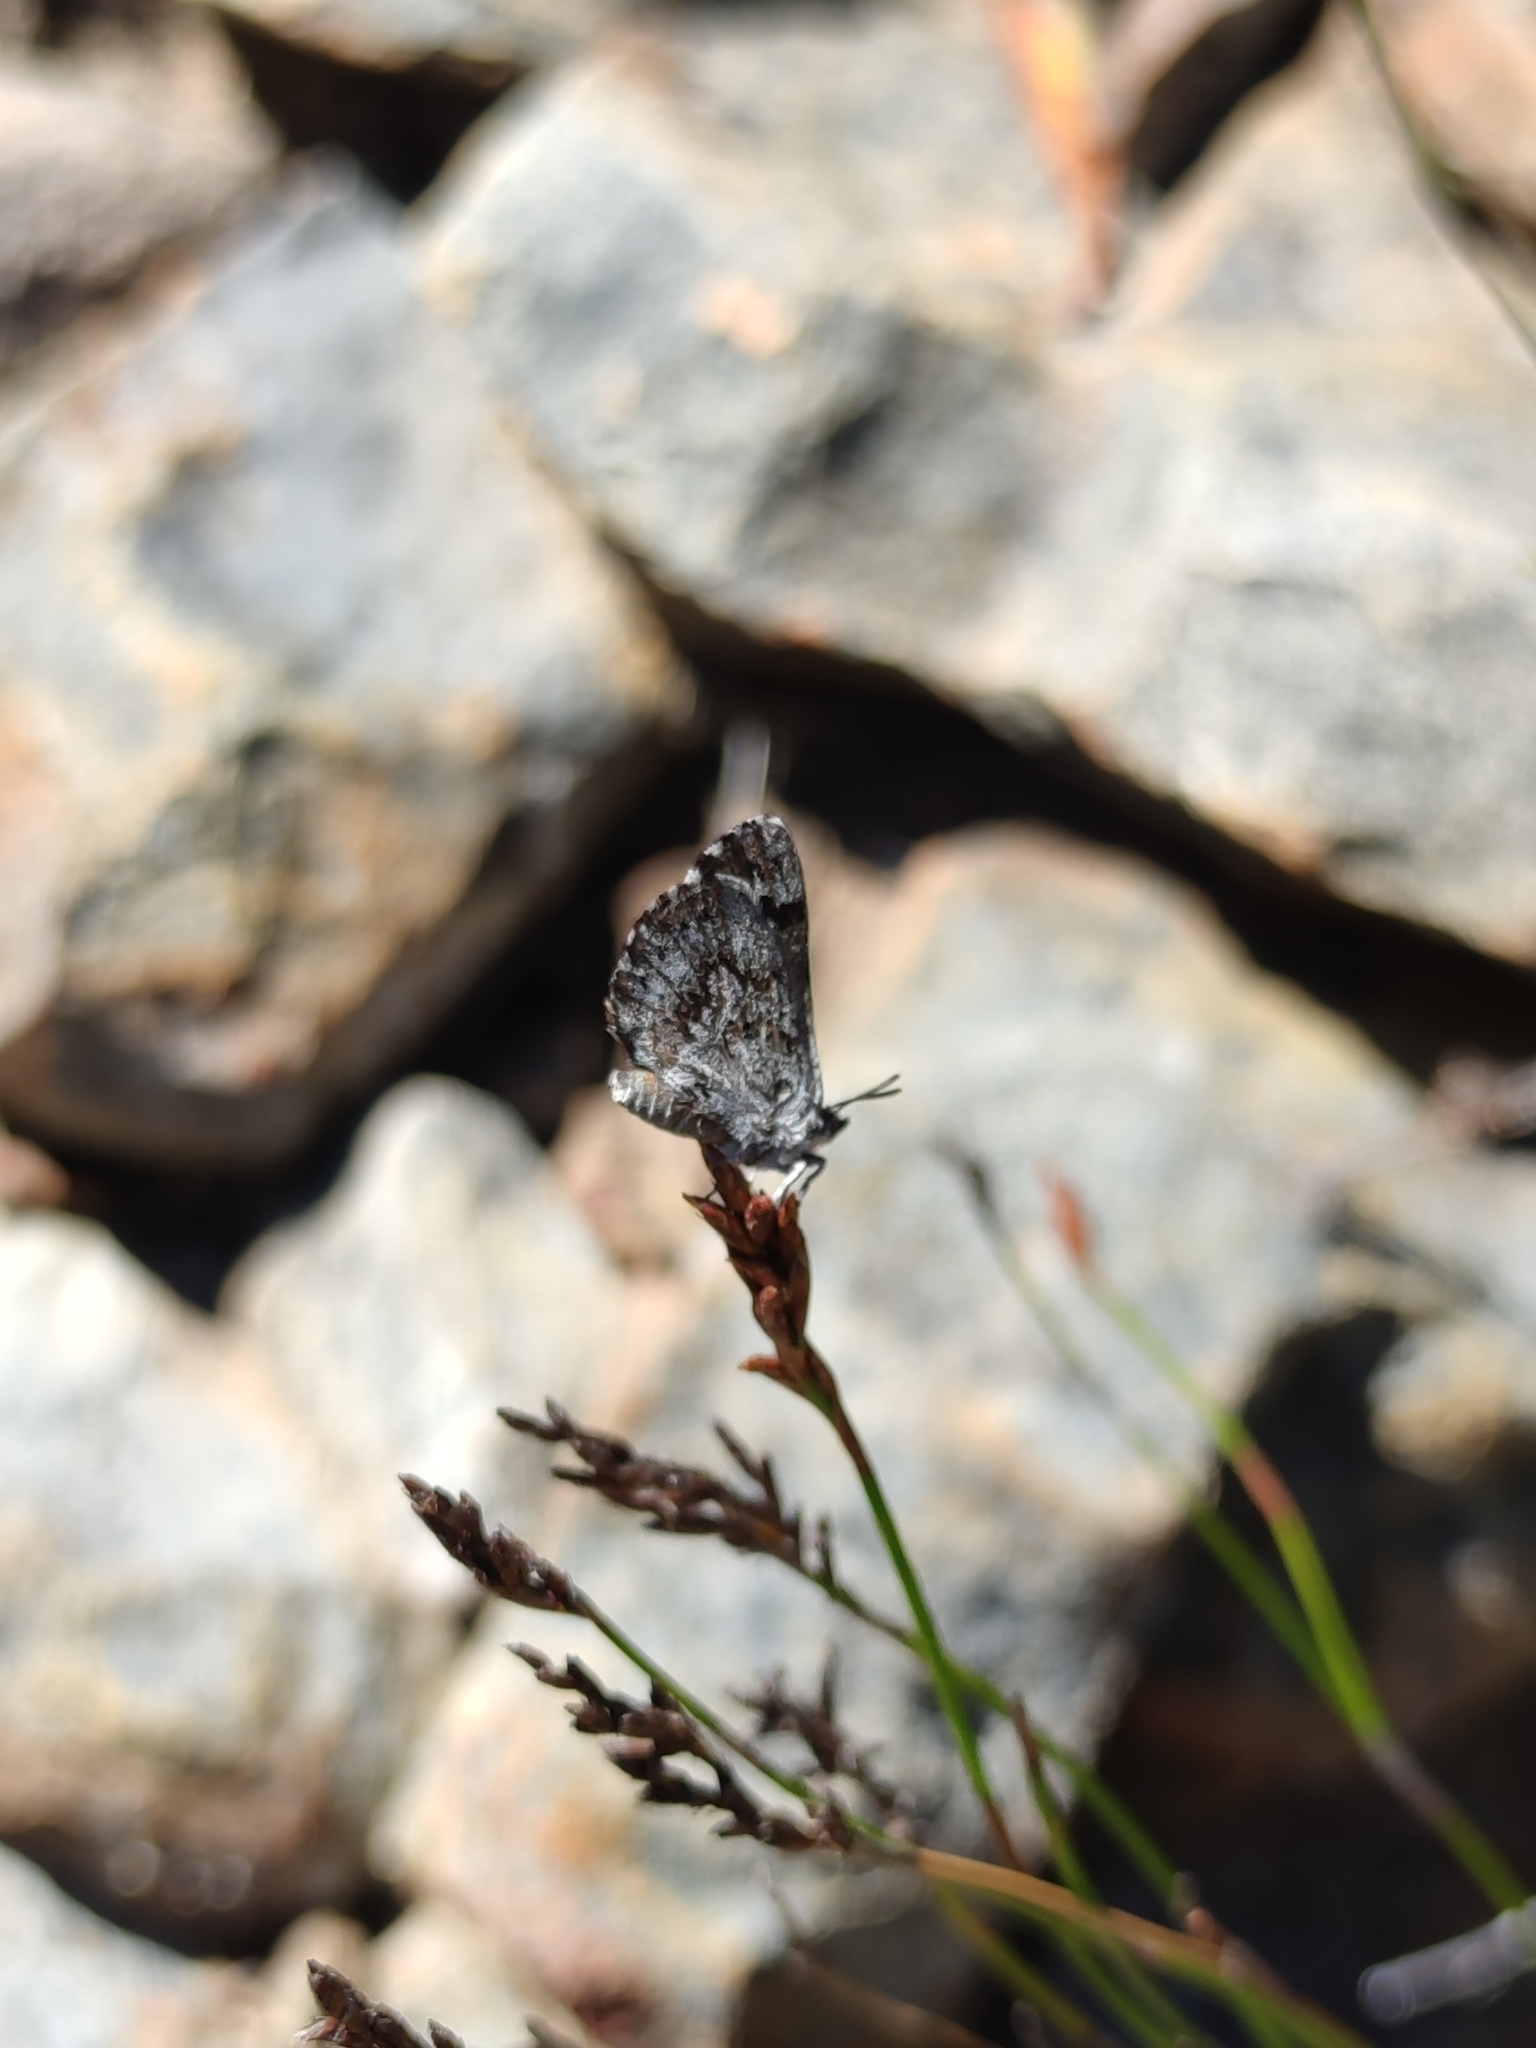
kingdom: Animalia
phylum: Arthropoda
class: Insecta
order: Lepidoptera
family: Lycaenidae
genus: Thestor
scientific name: Thestor holmesi
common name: Holmes' skolly
